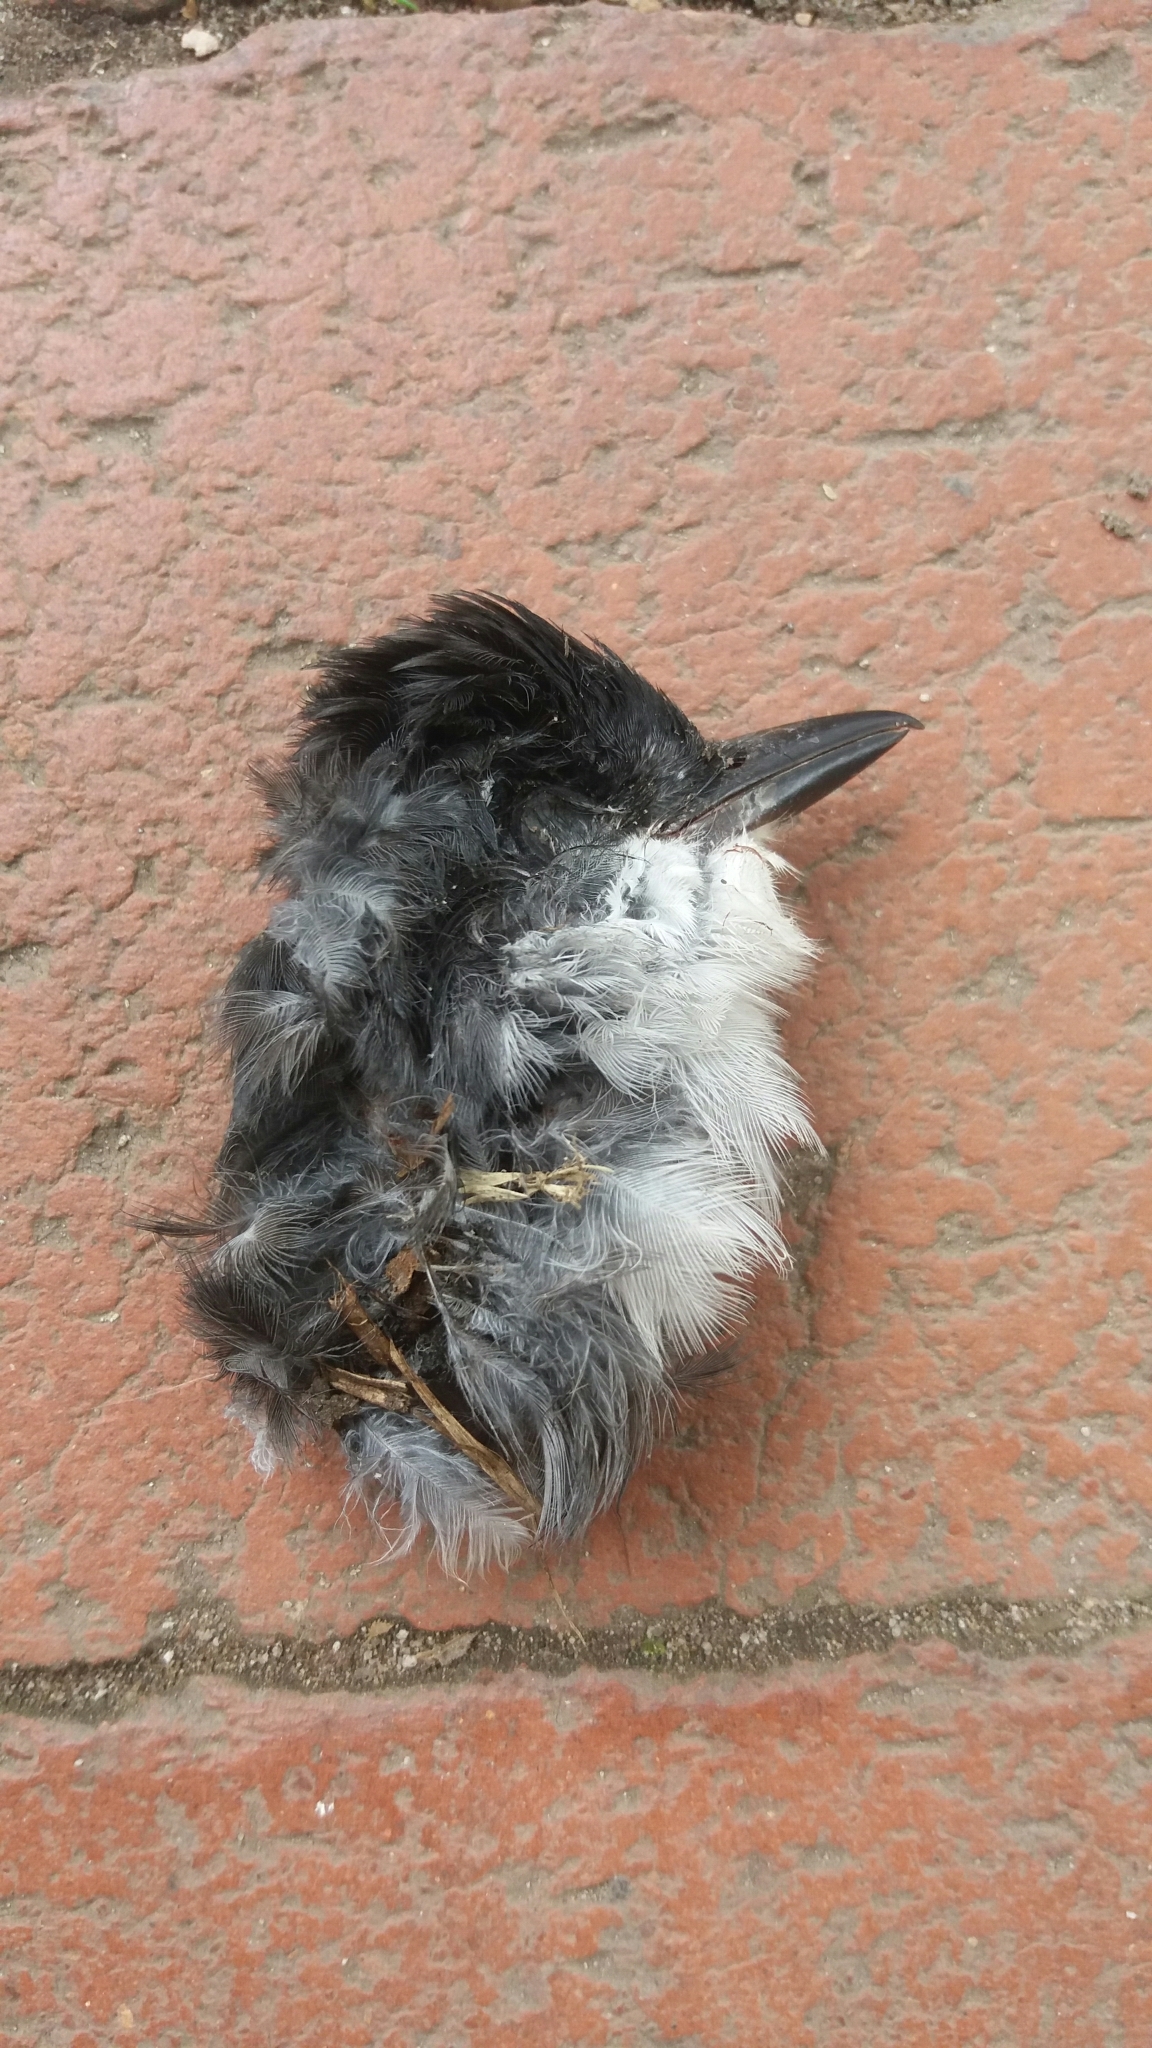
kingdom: Animalia
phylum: Chordata
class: Aves
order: Passeriformes
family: Tyrannidae
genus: Tyrannus
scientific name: Tyrannus tyrannus
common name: Eastern kingbird
